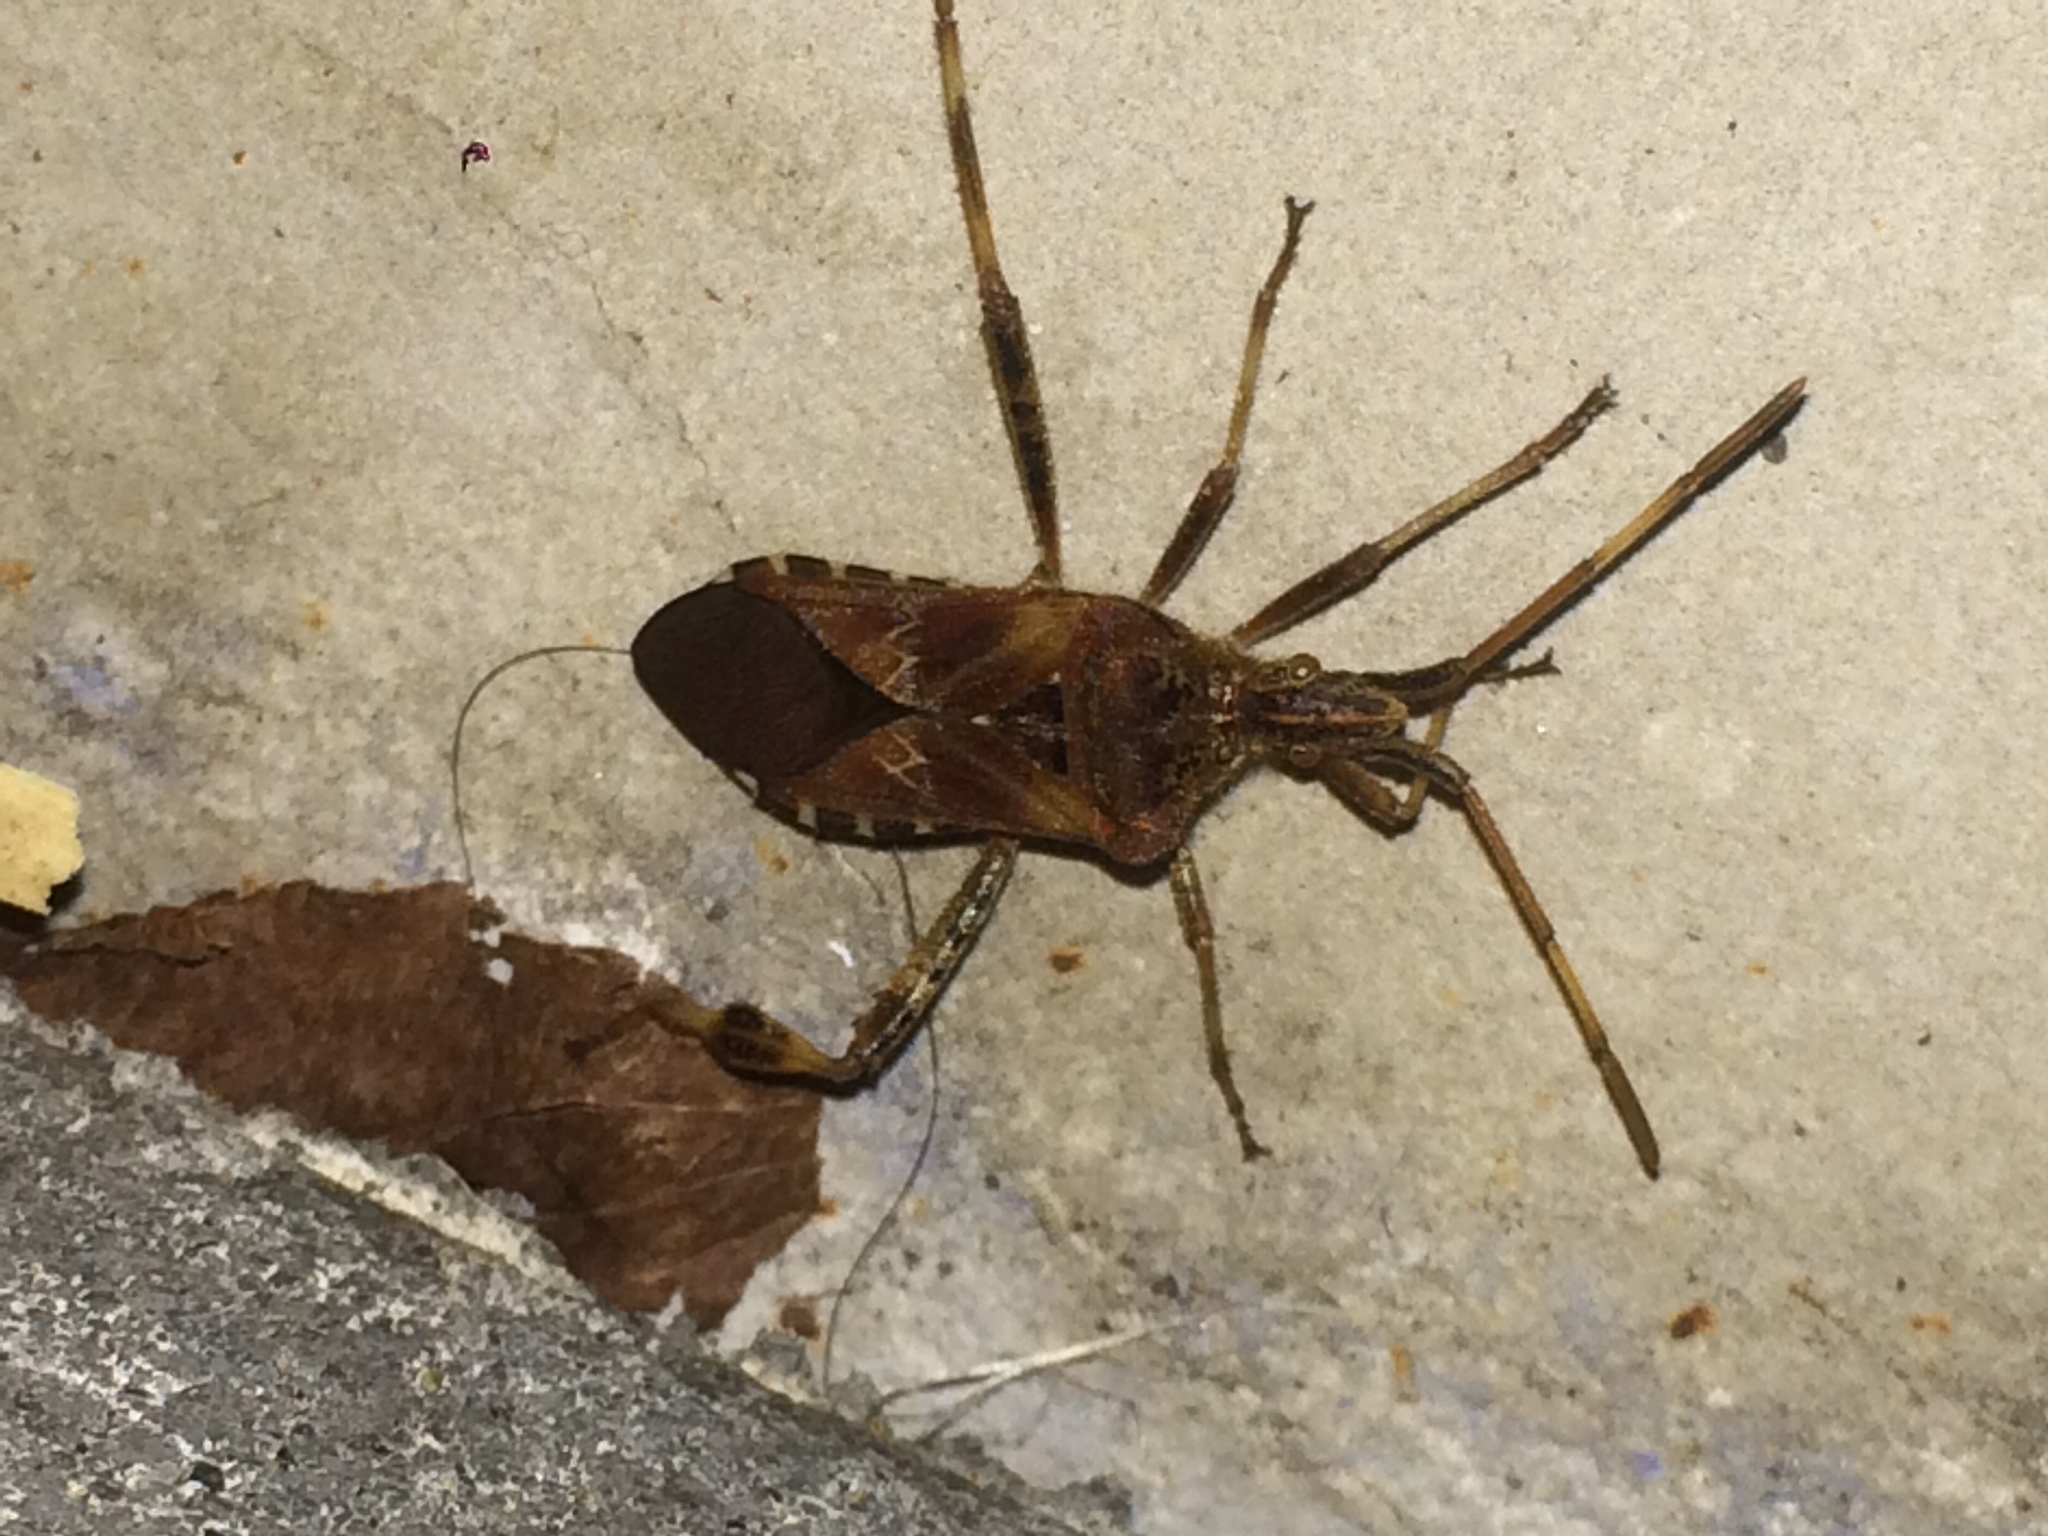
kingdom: Animalia
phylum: Arthropoda
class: Insecta
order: Hemiptera
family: Coreidae
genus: Leptoglossus
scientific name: Leptoglossus occidentalis
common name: Western conifer-seed bug
